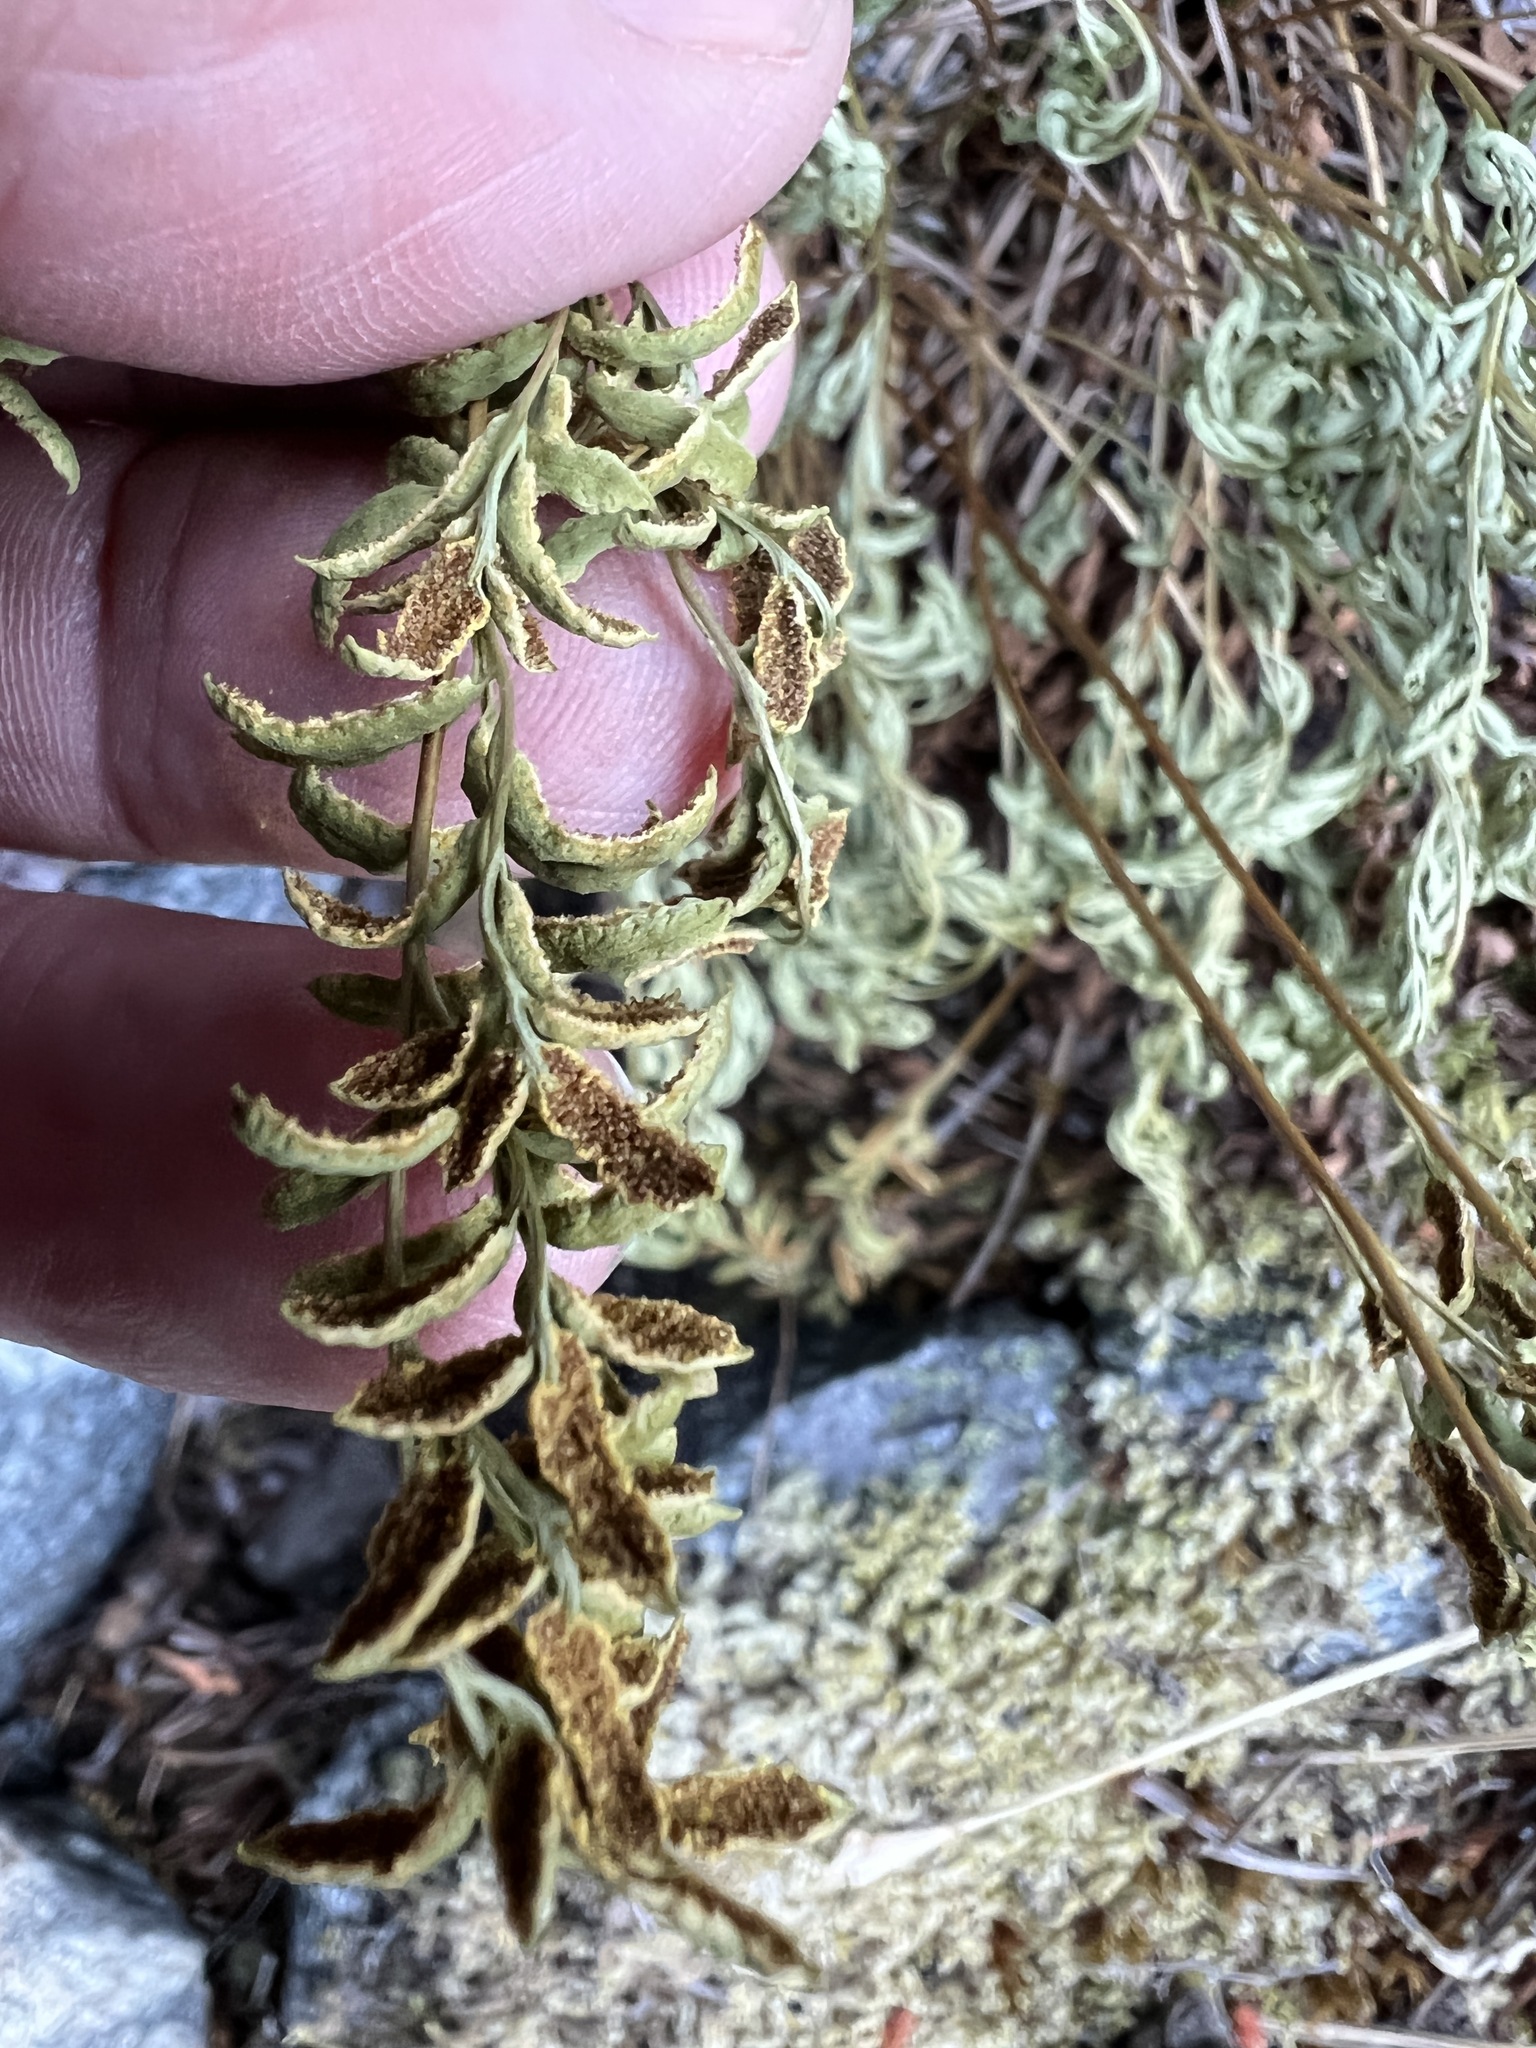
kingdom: Plantae
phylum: Tracheophyta
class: Polypodiopsida
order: Polypodiales
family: Pteridaceae
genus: Cryptogramma
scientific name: Cryptogramma acrostichoides
